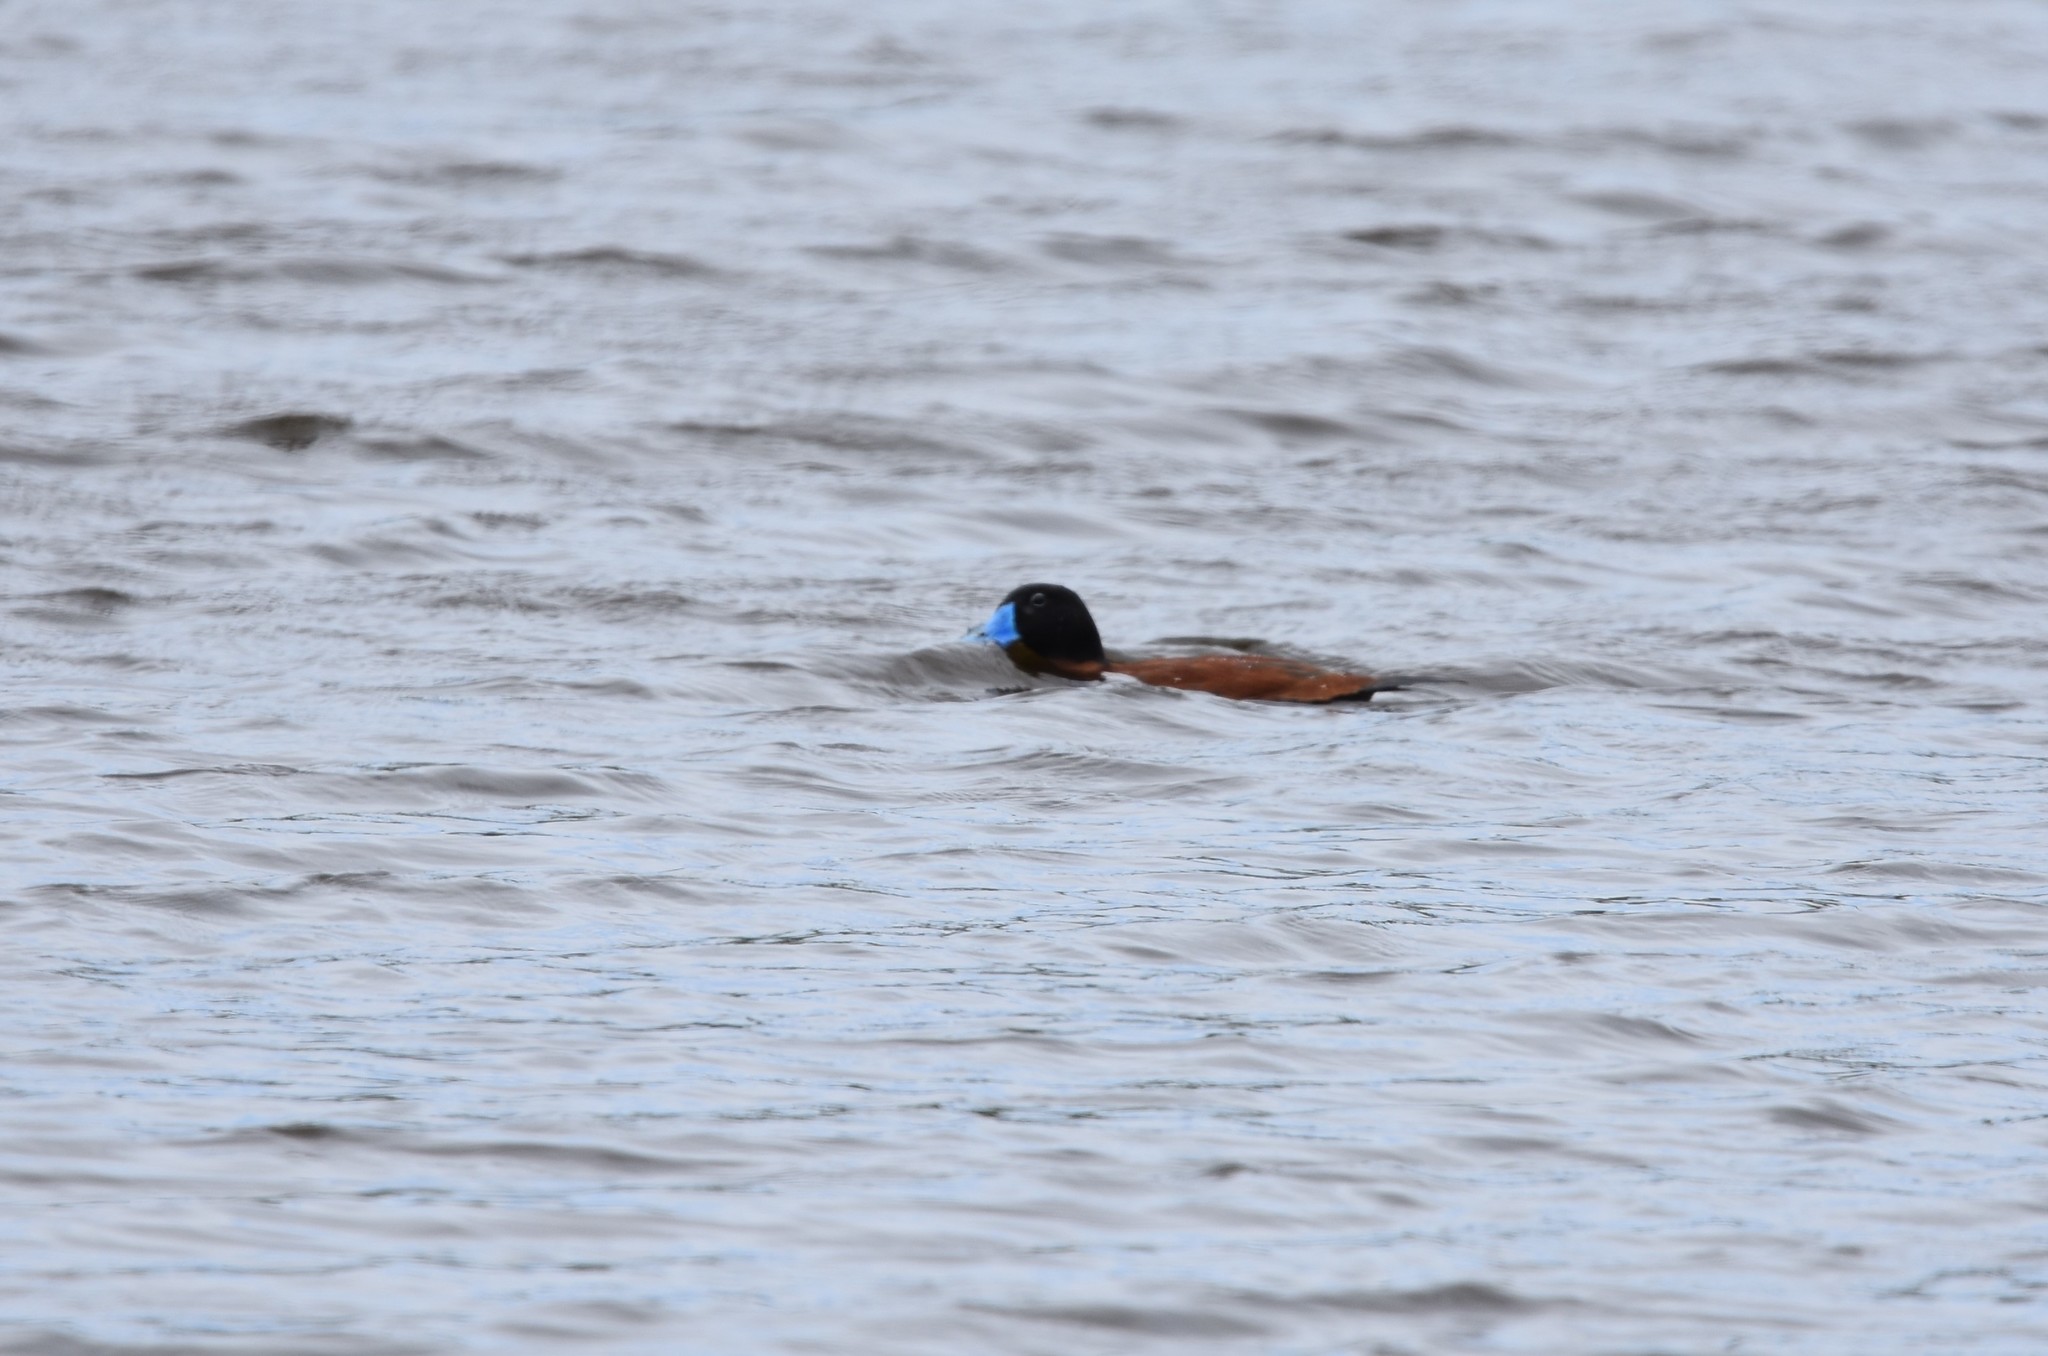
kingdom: Animalia
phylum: Chordata
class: Aves
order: Anseriformes
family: Anatidae
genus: Oxyura
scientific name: Oxyura maccoa
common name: Maccoa duck
